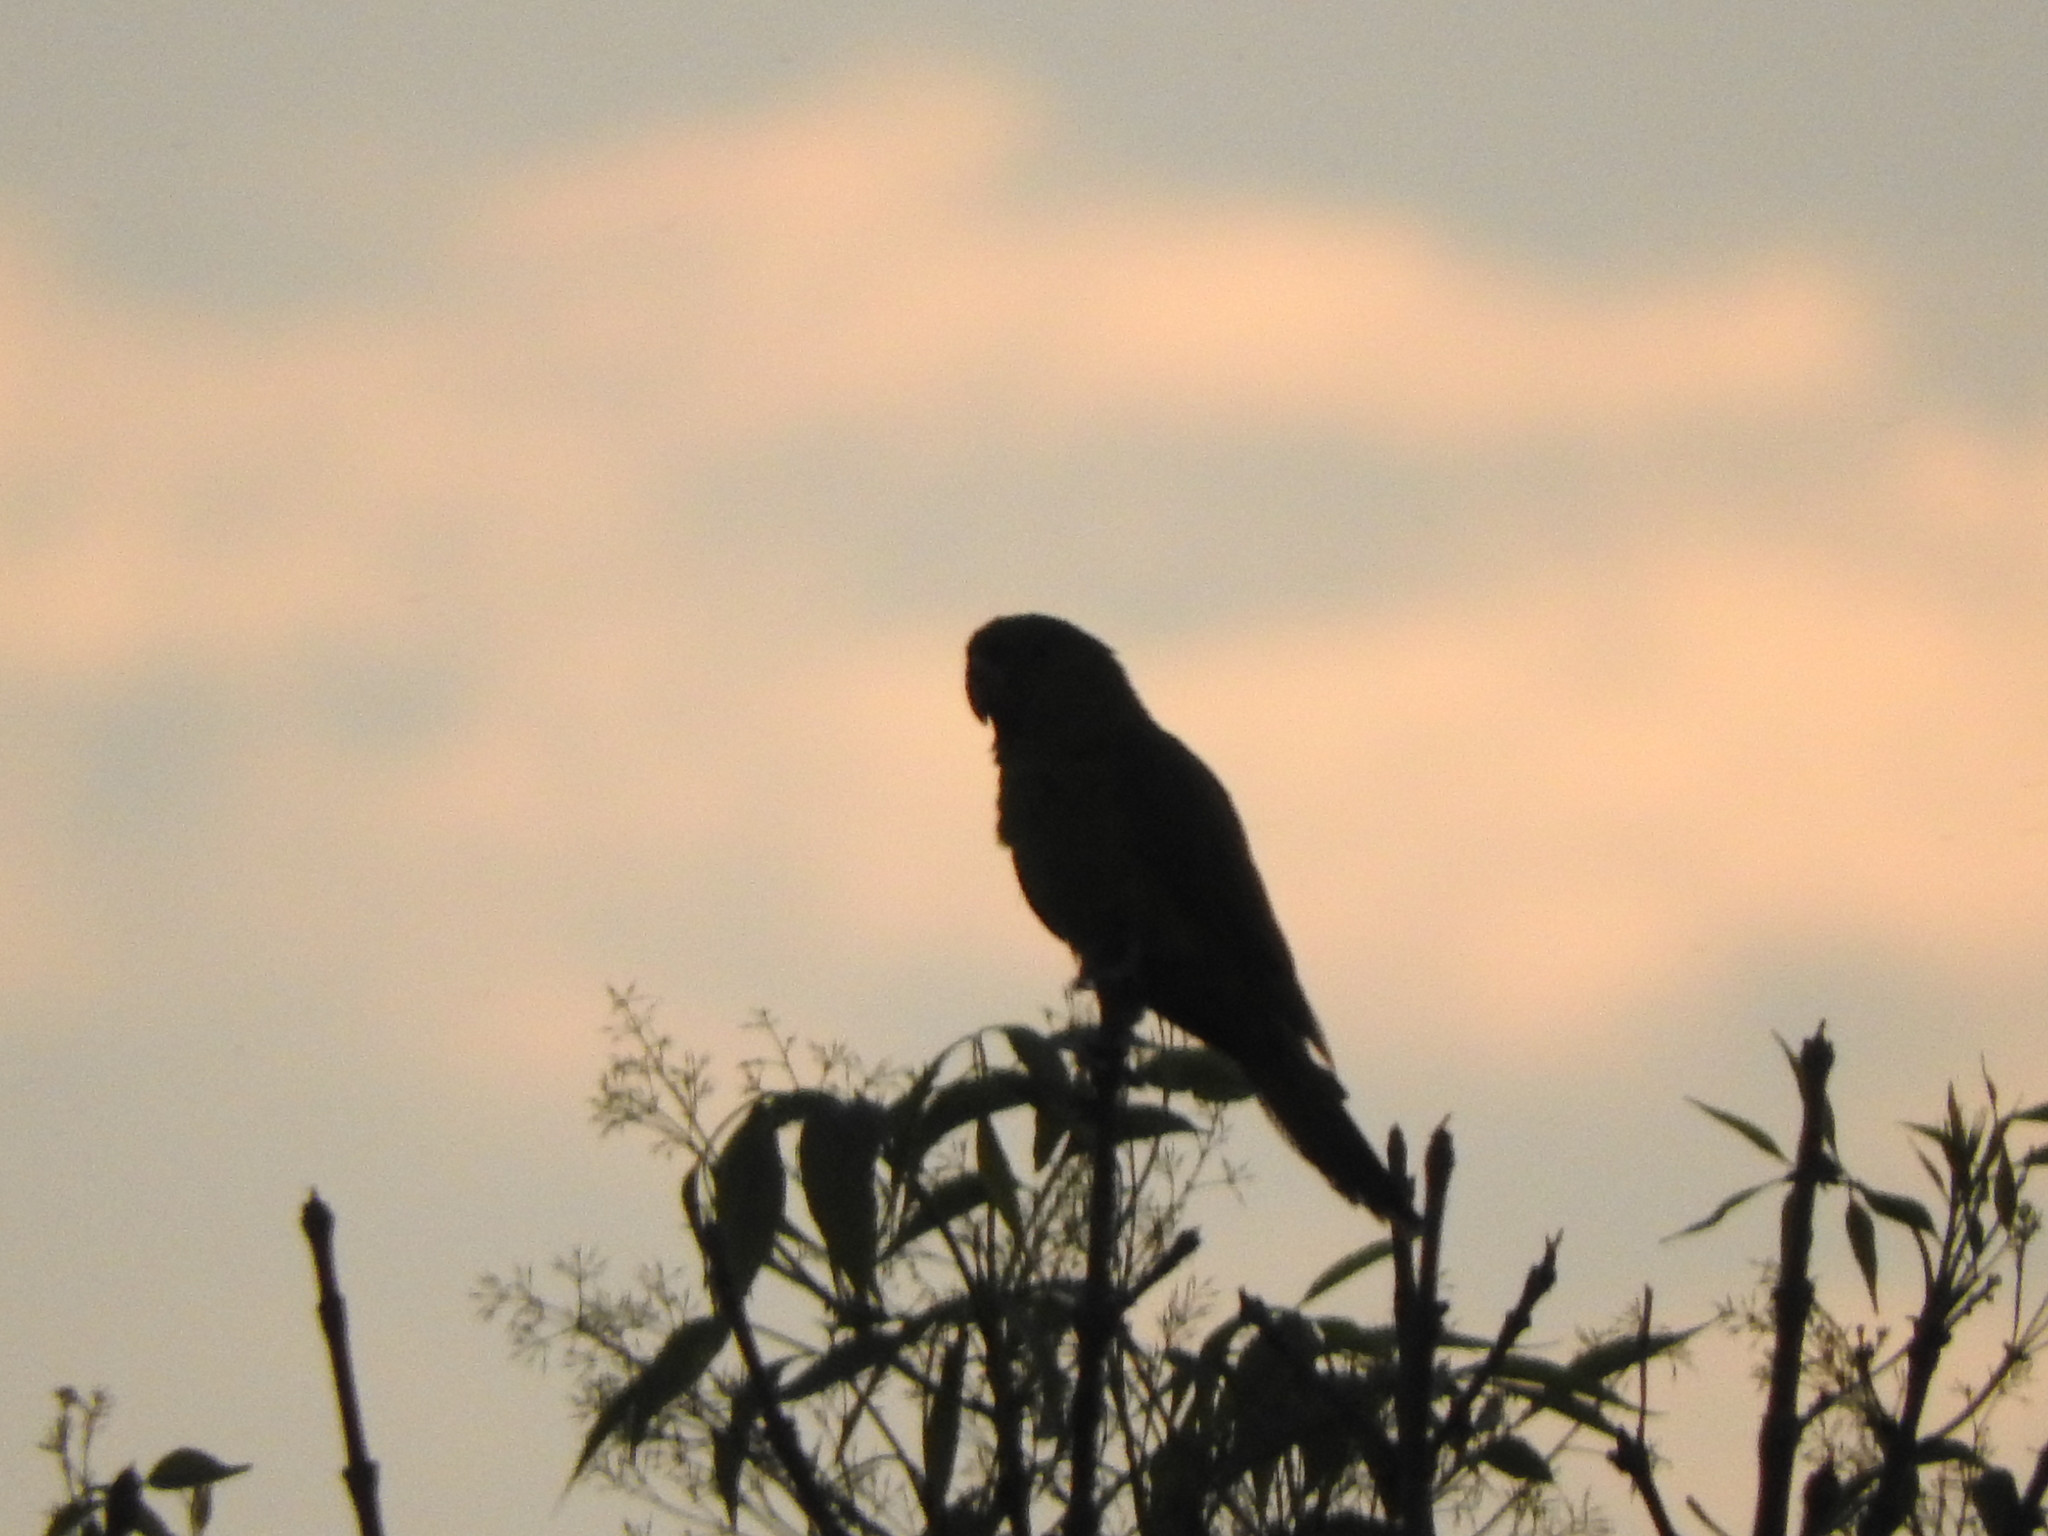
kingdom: Animalia
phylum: Chordata
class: Aves
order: Psittaciformes
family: Psittacidae
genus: Aratinga
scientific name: Aratinga holochlora
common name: Green parakeet
